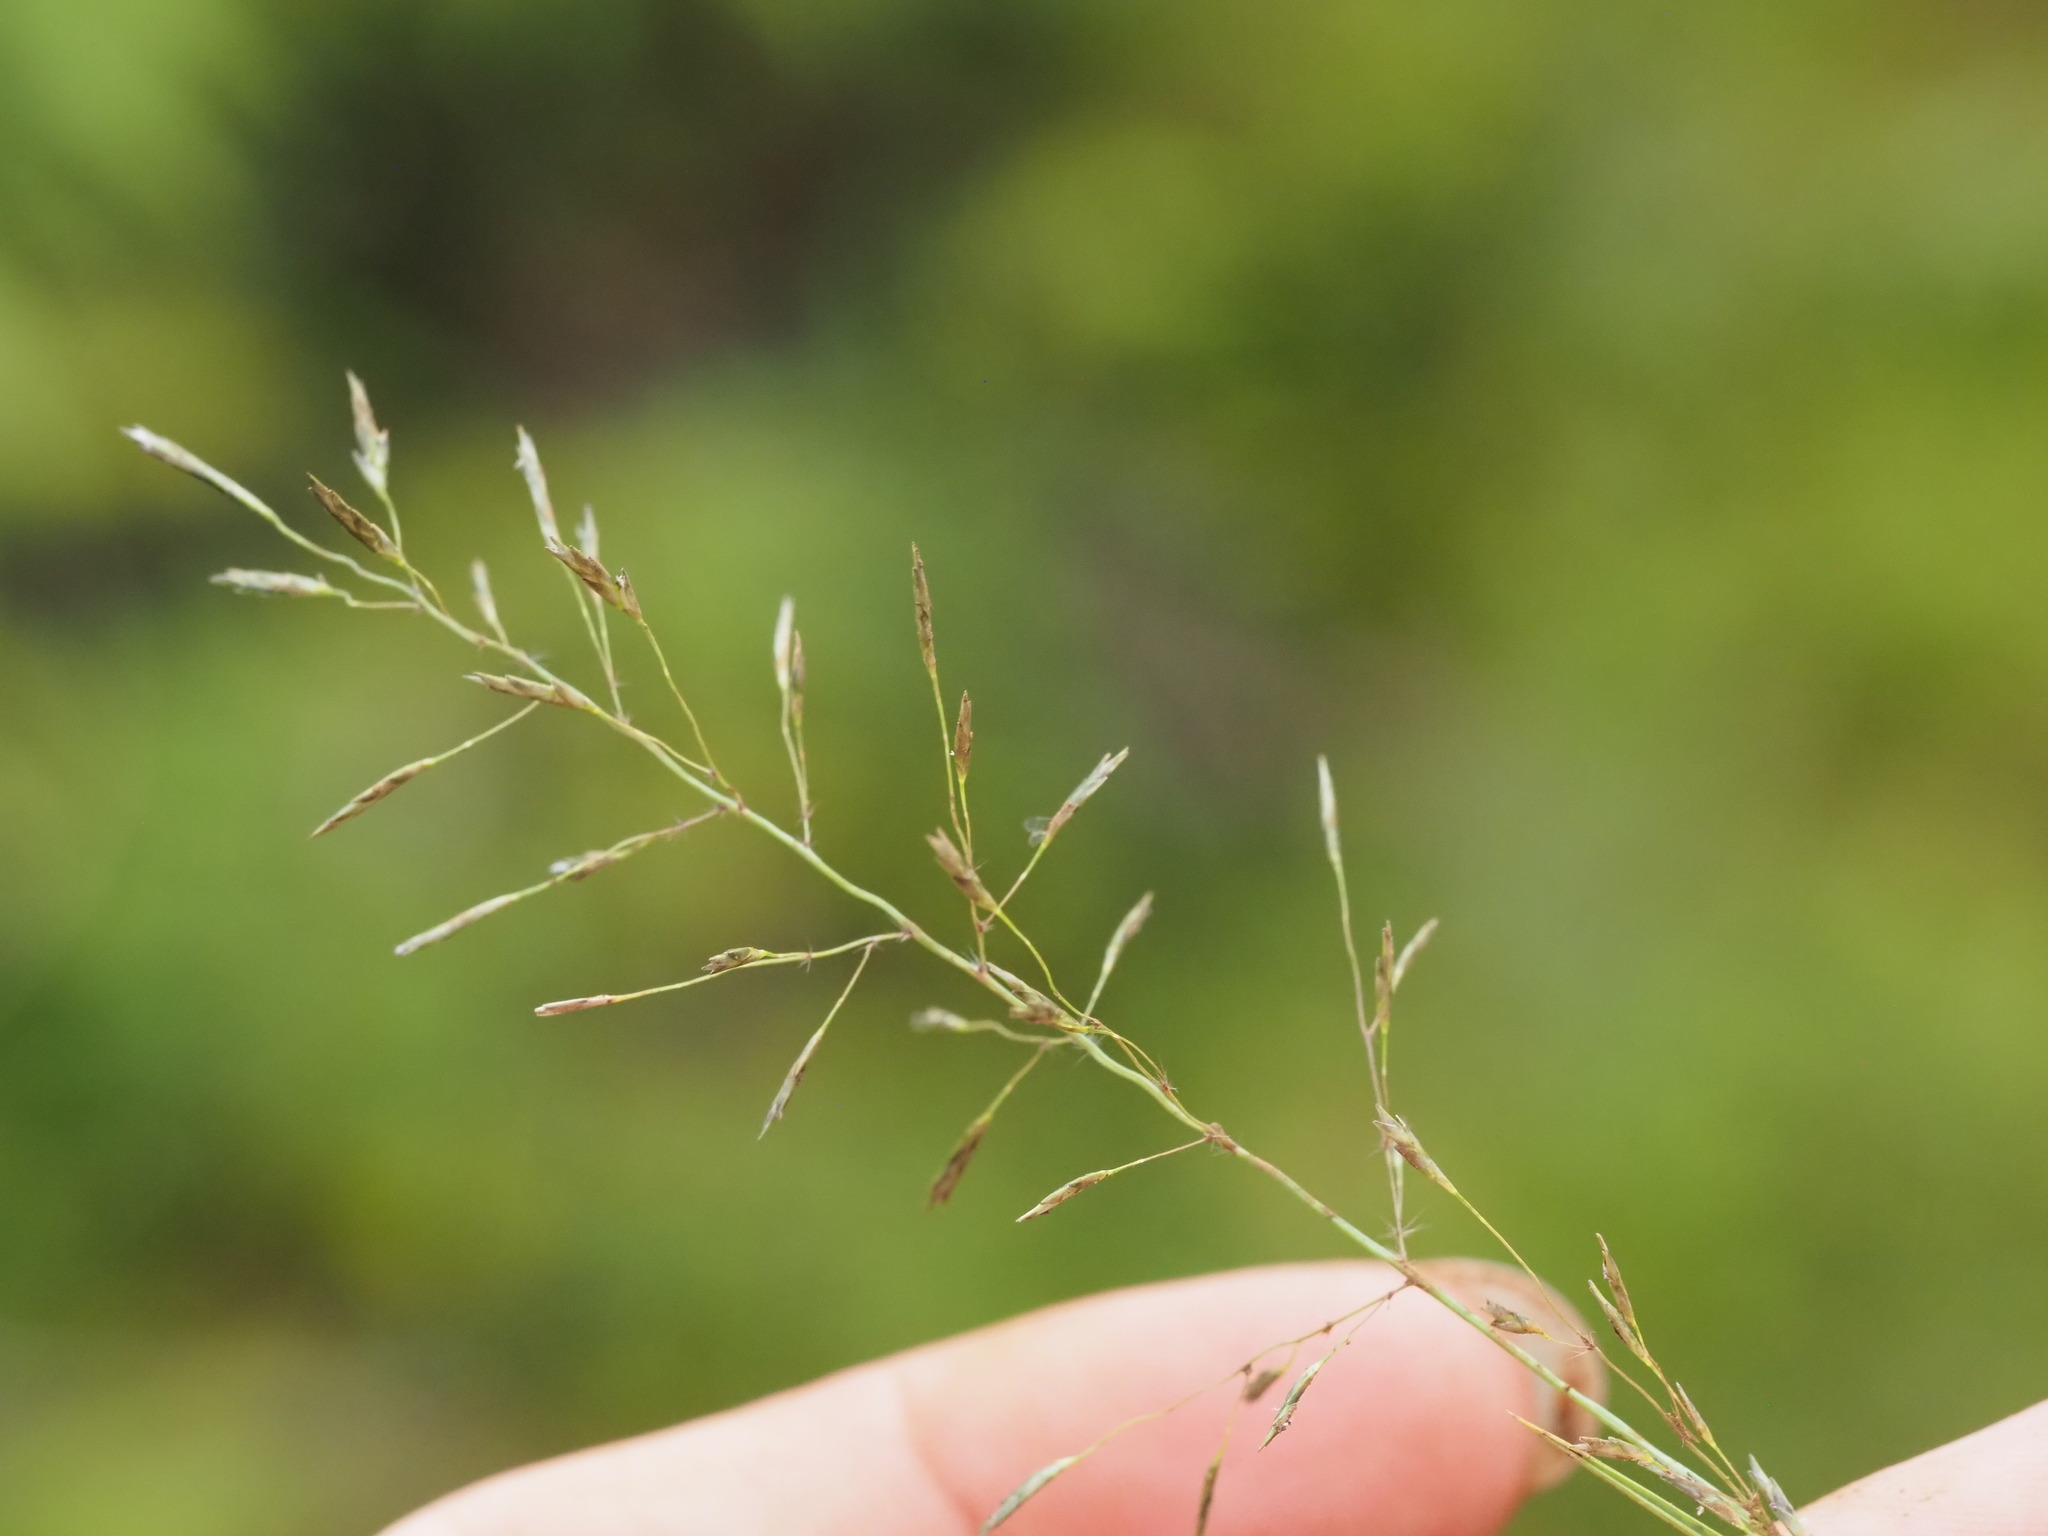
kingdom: Plantae
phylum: Tracheophyta
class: Liliopsida
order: Poales
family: Poaceae
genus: Eragrostis
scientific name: Eragrostis tenuifolia
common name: Elastic grass
